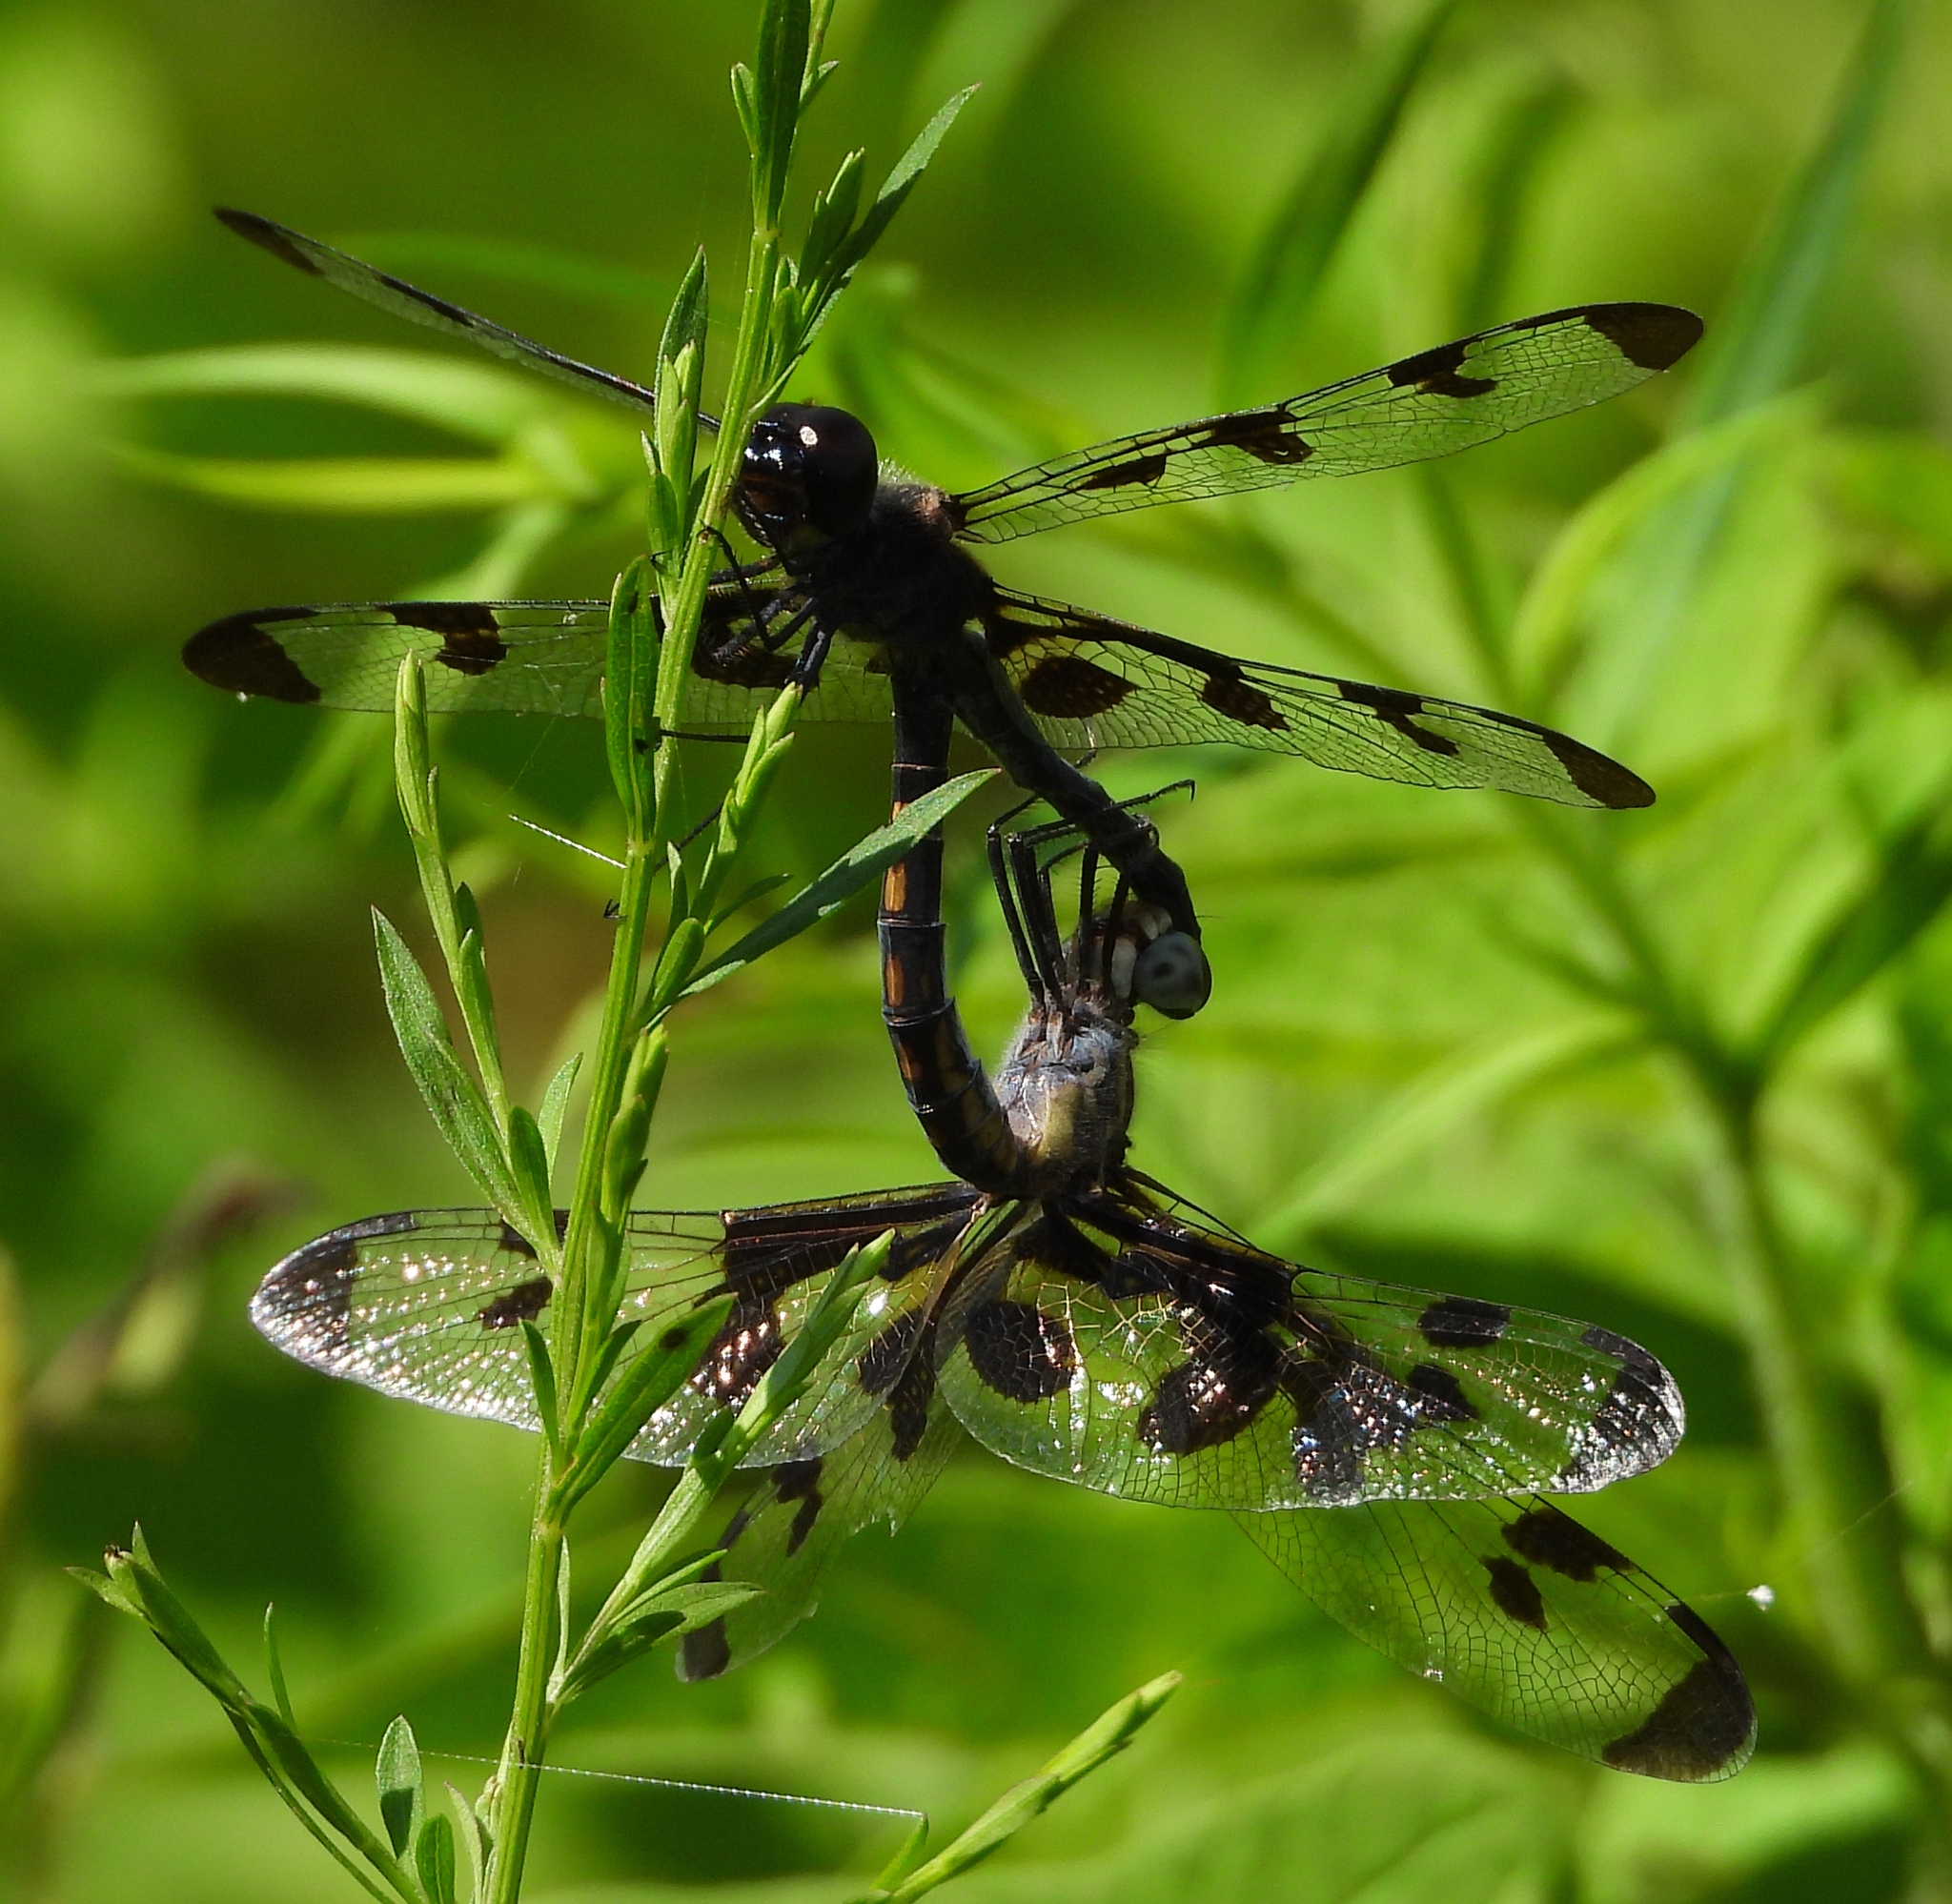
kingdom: Animalia
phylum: Arthropoda
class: Insecta
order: Odonata
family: Libellulidae
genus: Celithemis
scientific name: Celithemis fasciata
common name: Banded pennant
